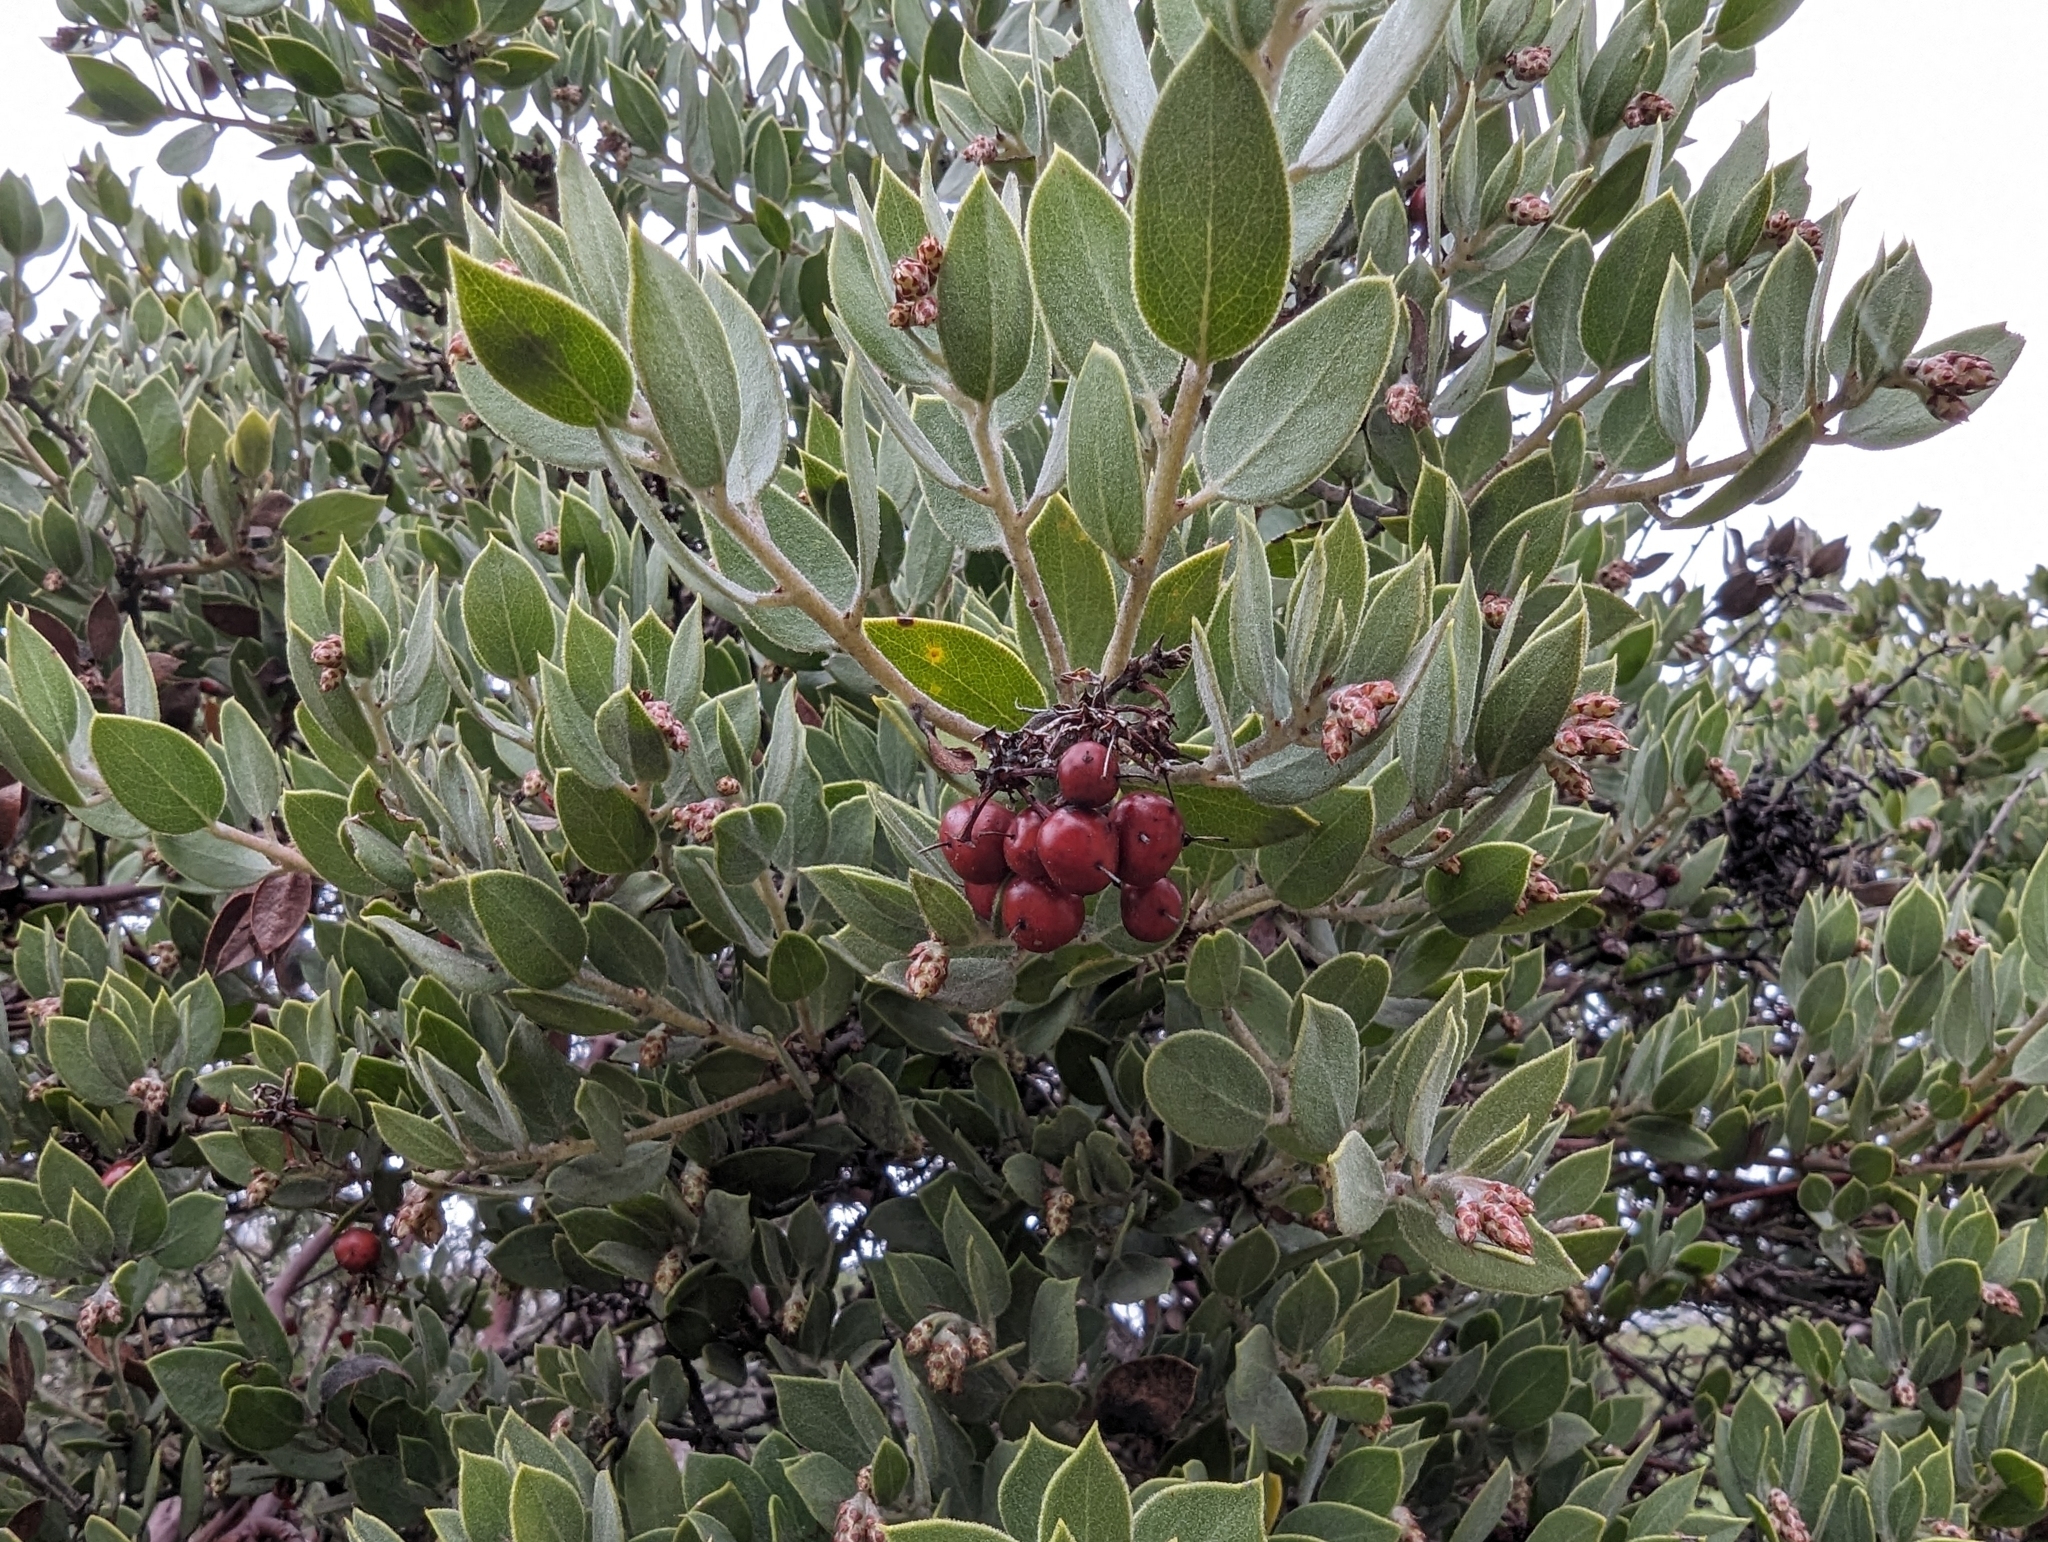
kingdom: Plantae
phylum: Tracheophyta
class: Magnoliopsida
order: Ericales
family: Ericaceae
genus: Arctostaphylos
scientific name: Arctostaphylos montana
